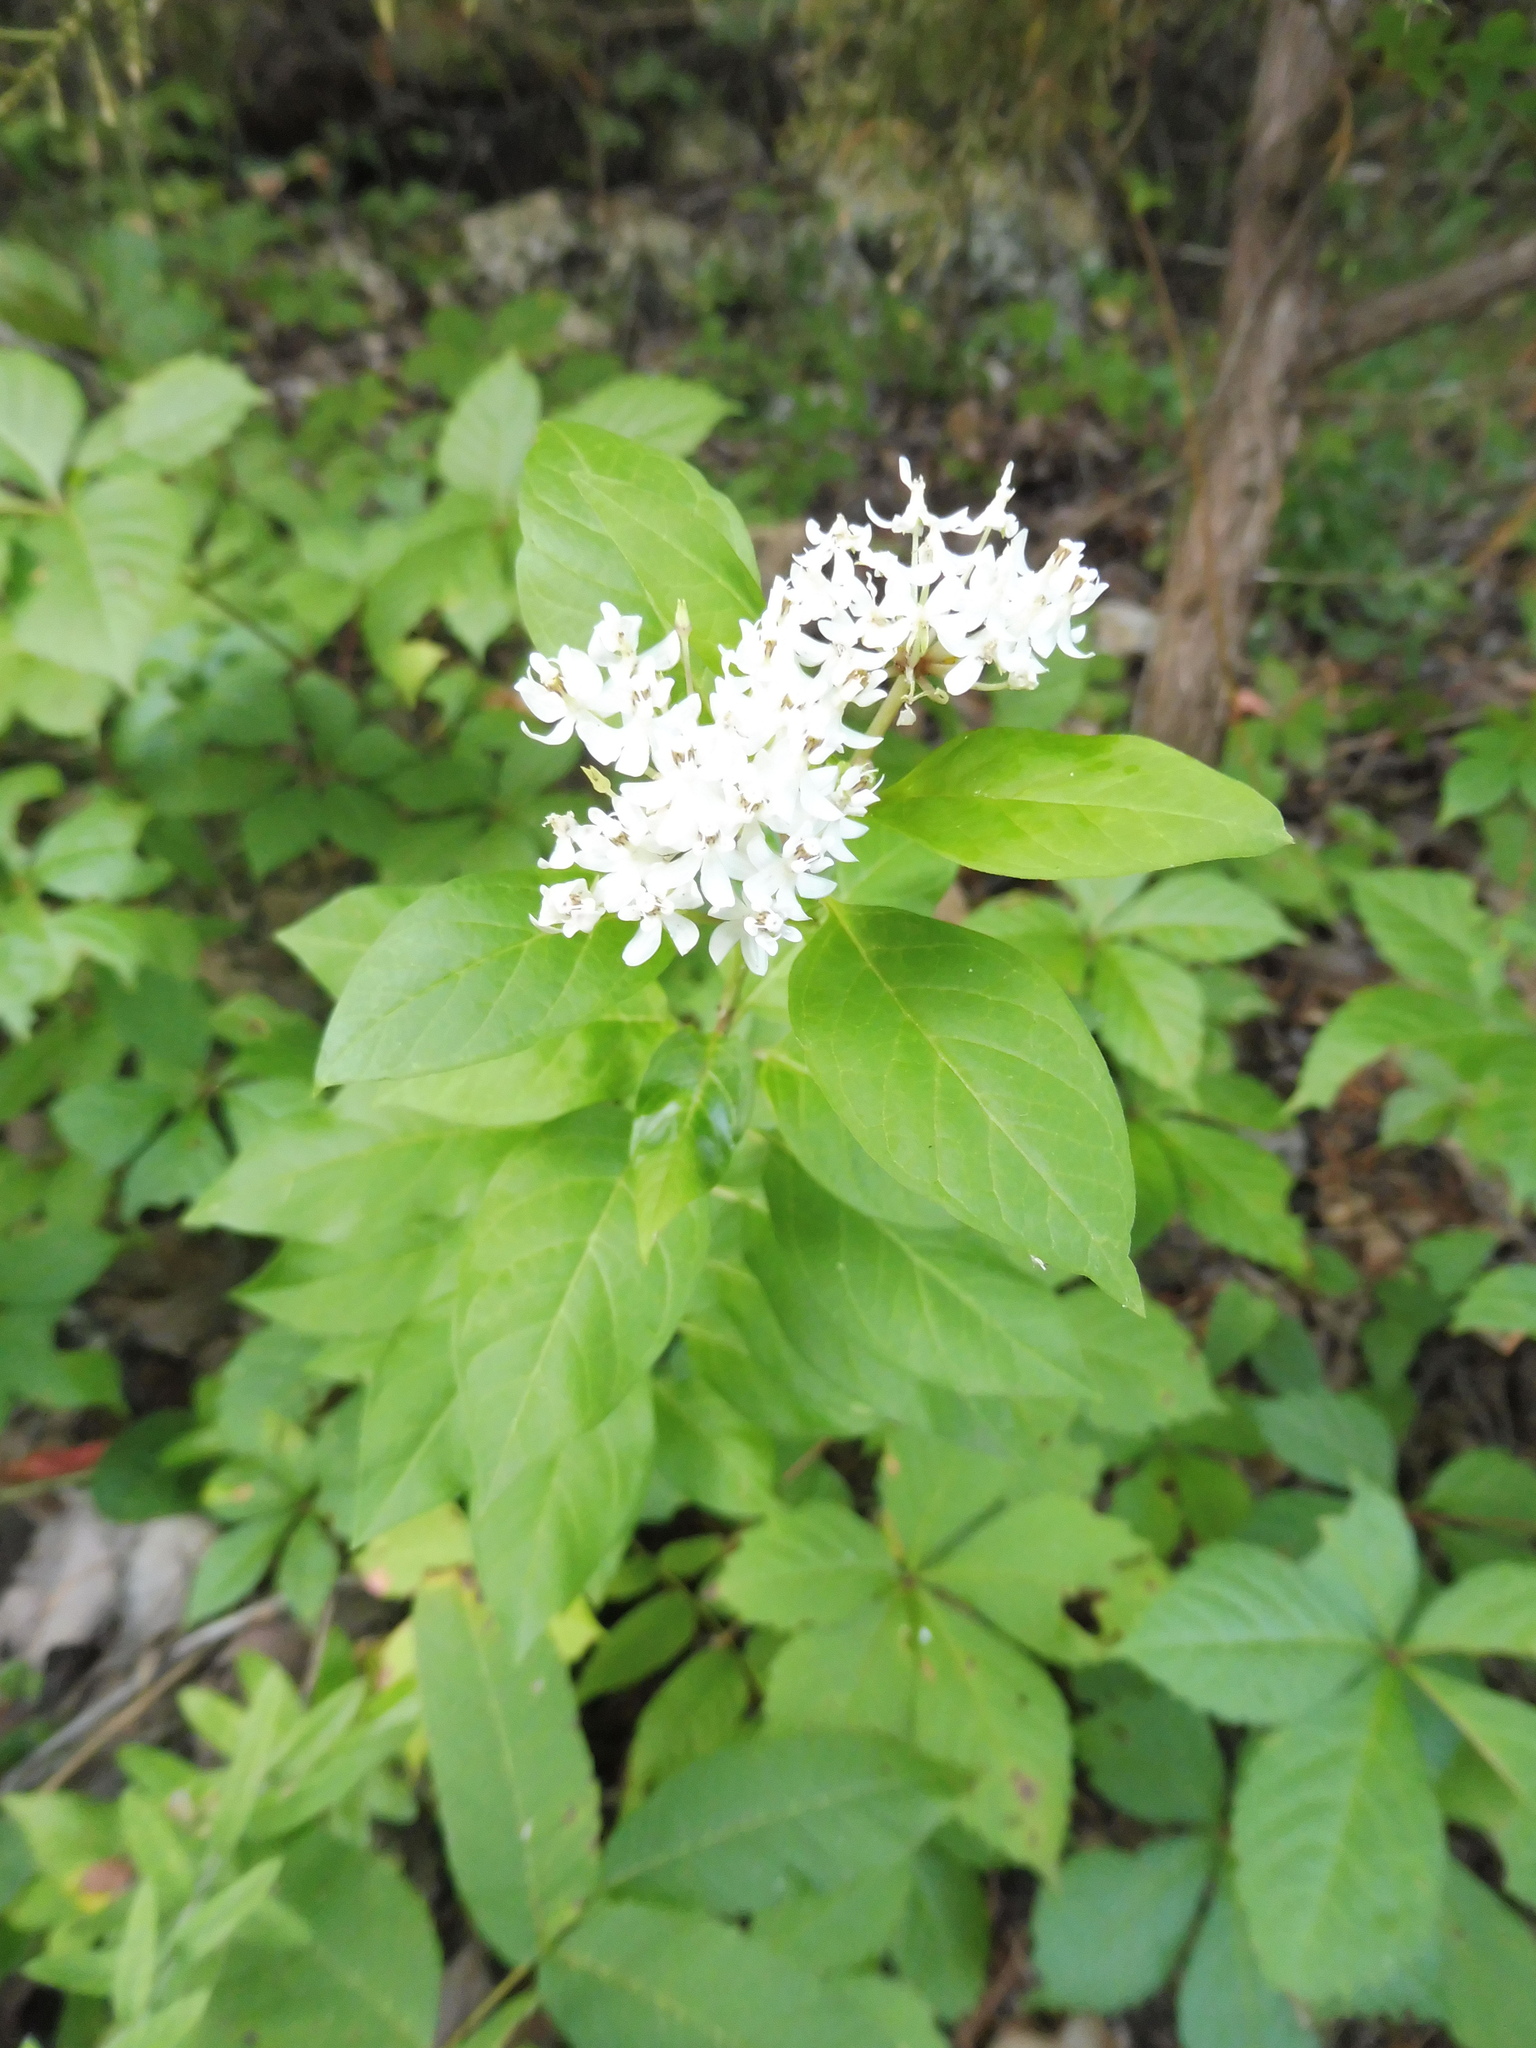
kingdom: Plantae
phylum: Tracheophyta
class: Magnoliopsida
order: Gentianales
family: Apocynaceae
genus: Asclepias
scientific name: Asclepias texana
